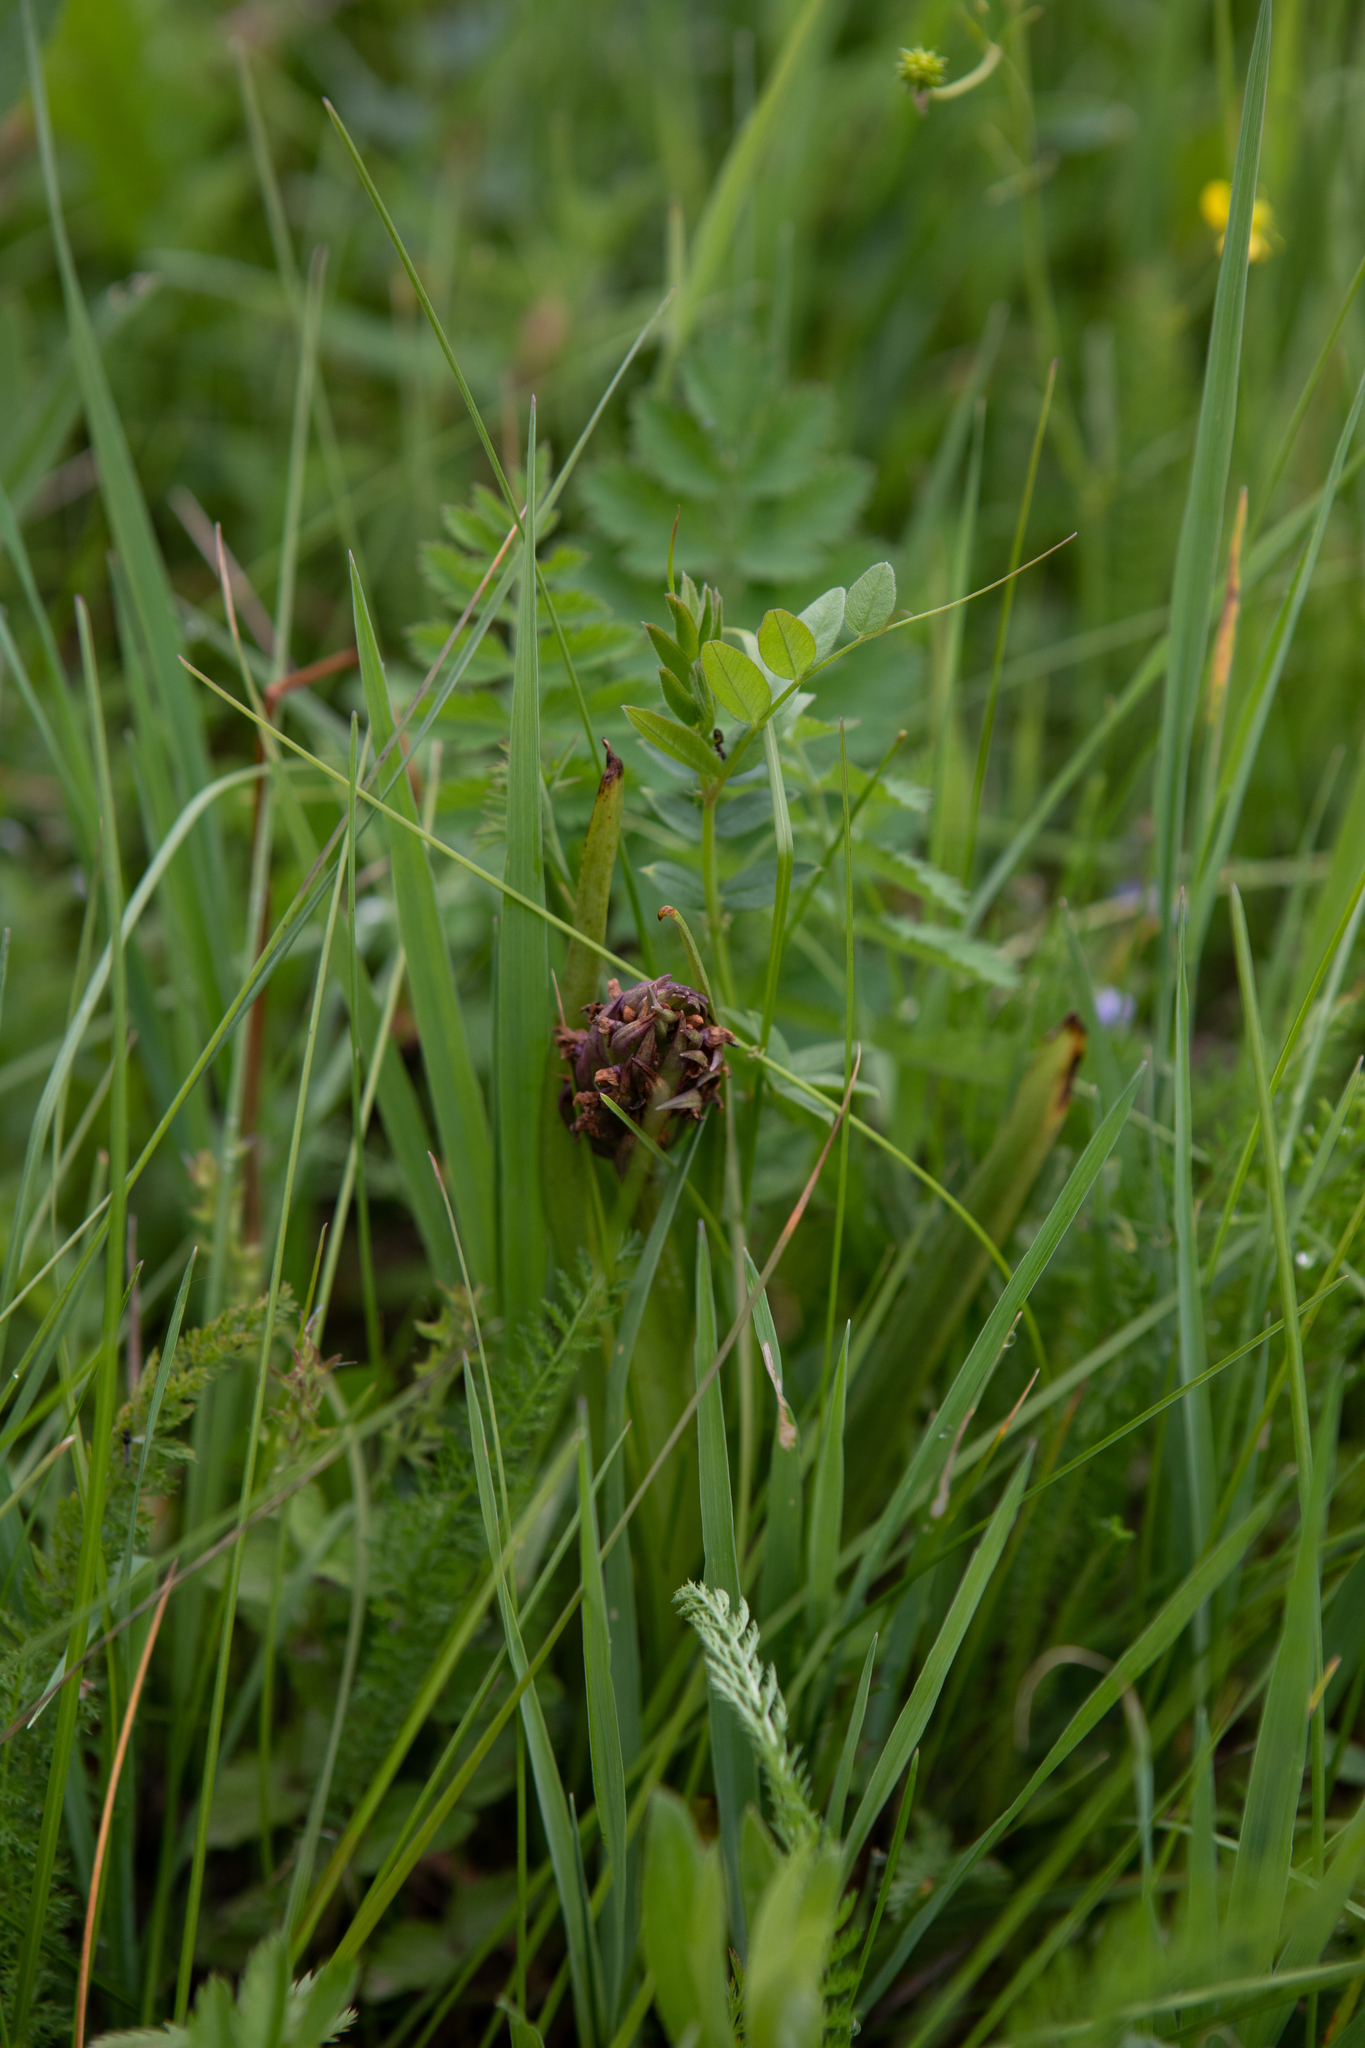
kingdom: Plantae
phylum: Tracheophyta
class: Liliopsida
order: Asparagales
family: Orchidaceae
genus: Dactylorhiza
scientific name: Dactylorhiza incarnata
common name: Early marsh-orchid
